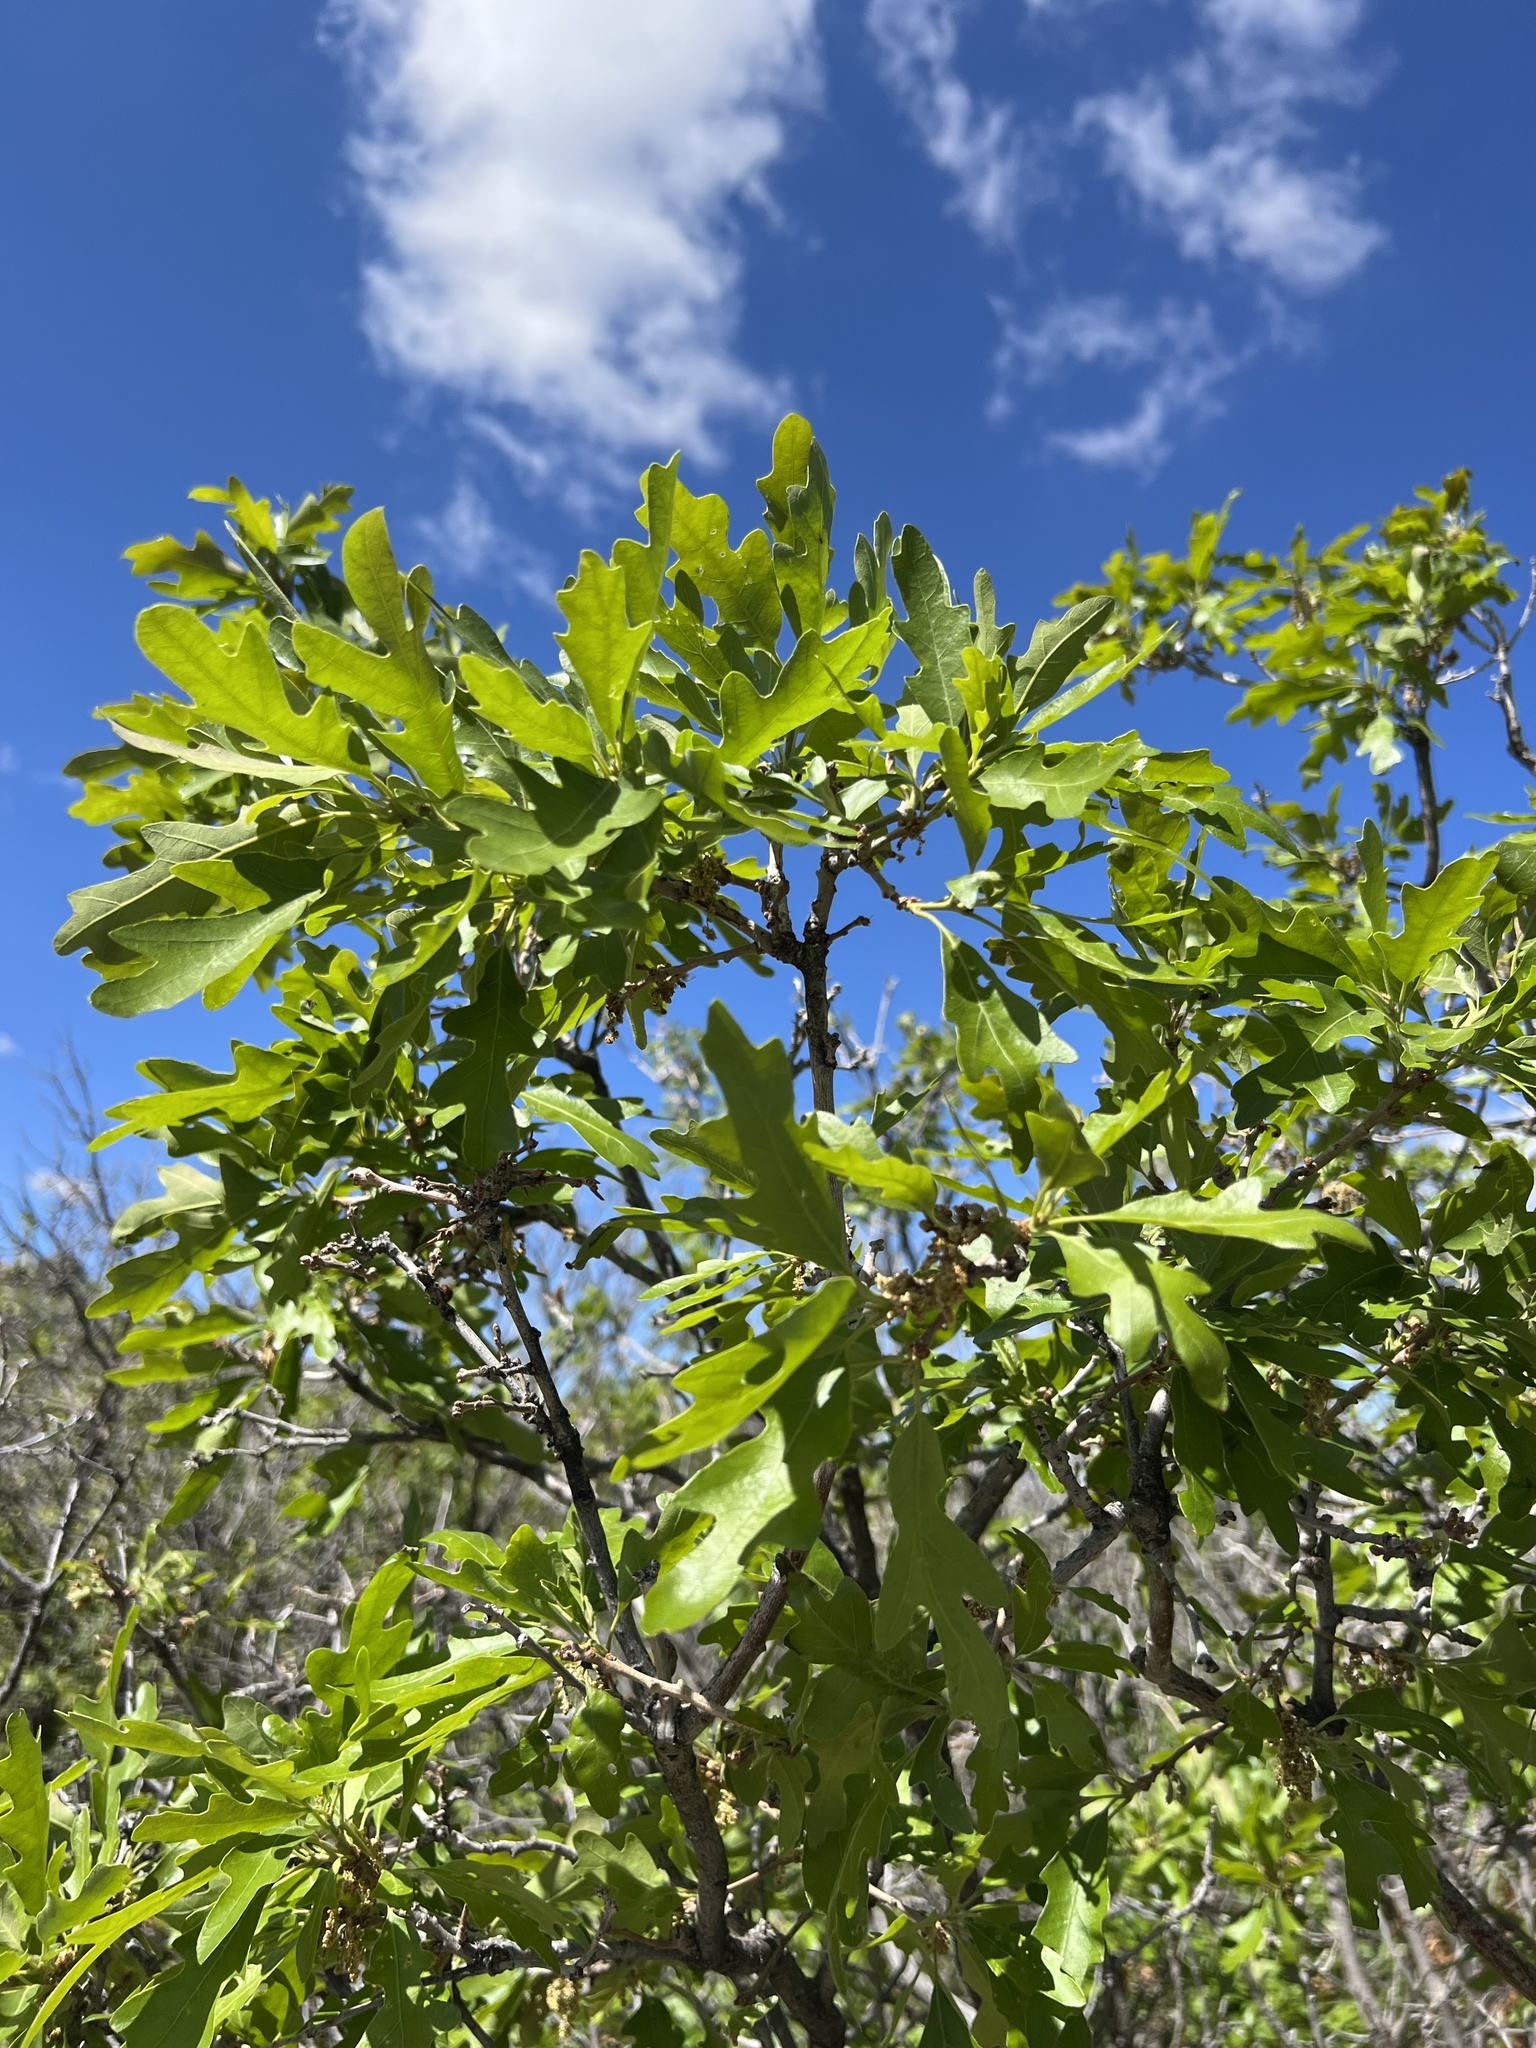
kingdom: Plantae
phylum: Tracheophyta
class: Magnoliopsida
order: Fagales
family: Fagaceae
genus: Quercus
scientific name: Quercus gambelii
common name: Gambel oak
